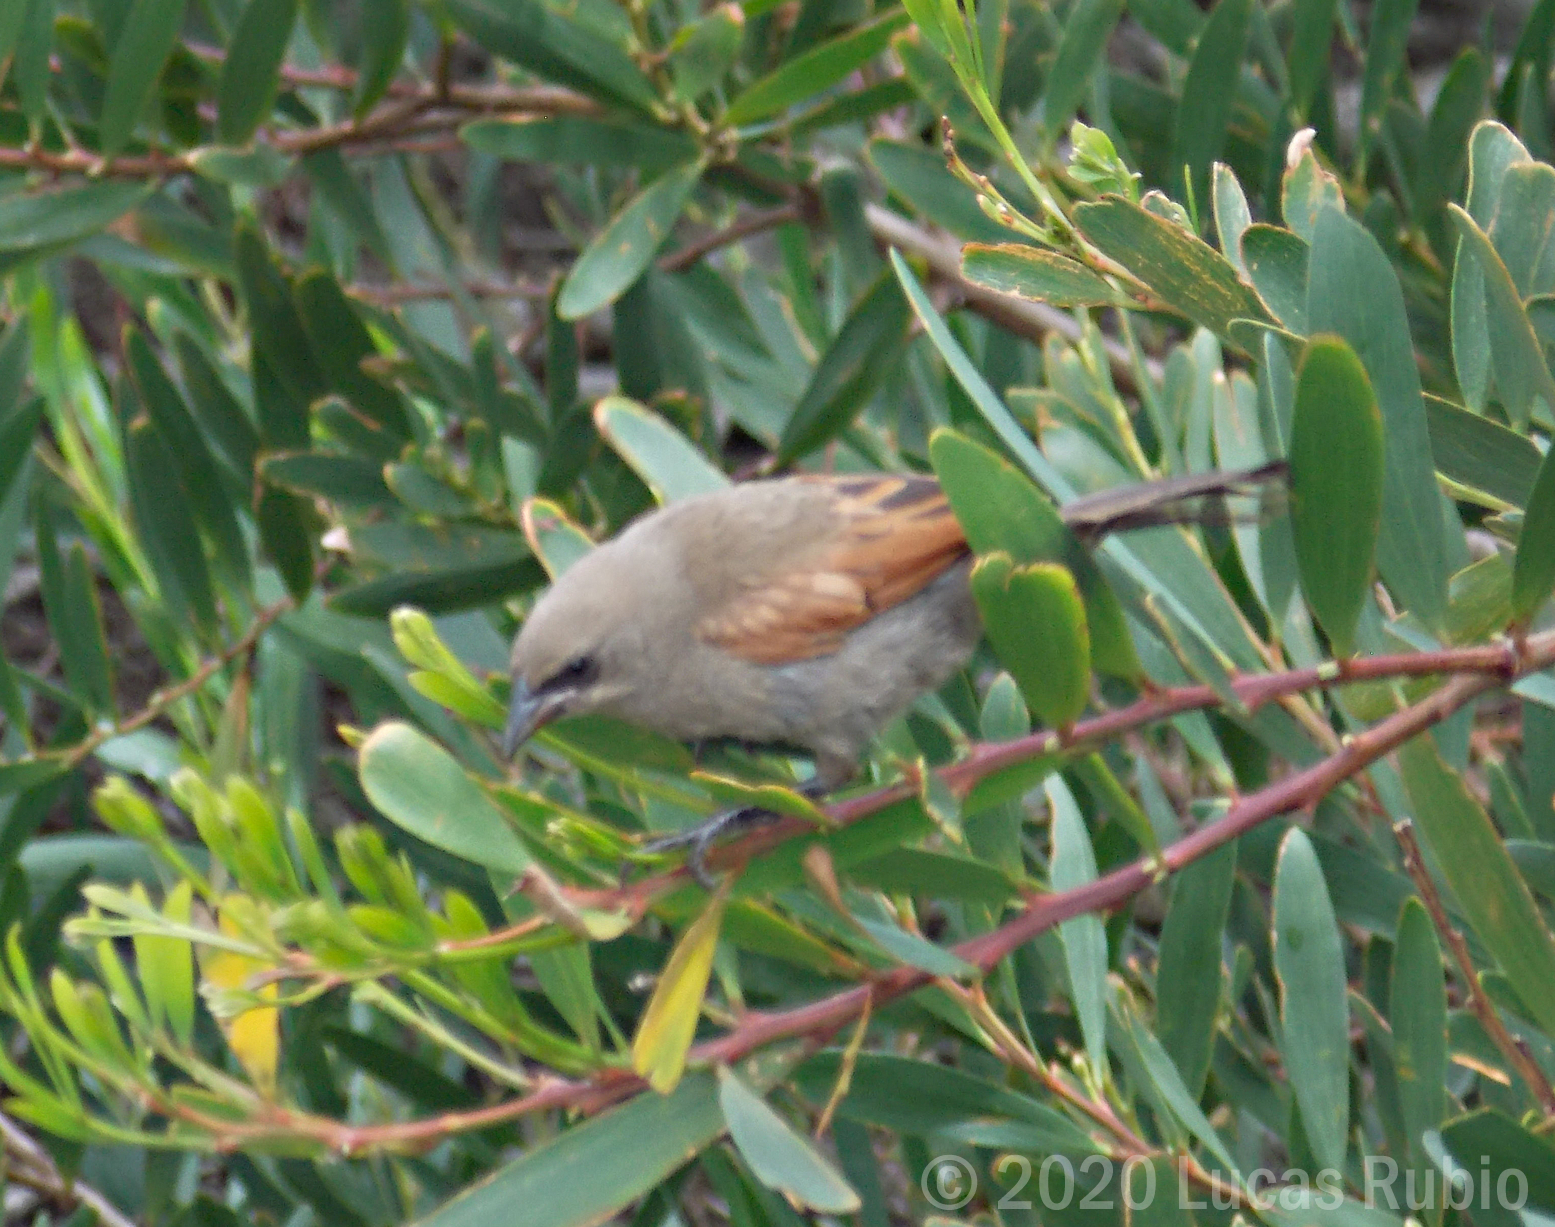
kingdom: Animalia
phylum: Chordata
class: Aves
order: Passeriformes
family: Icteridae
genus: Agelaioides
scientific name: Agelaioides badius
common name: Baywing
